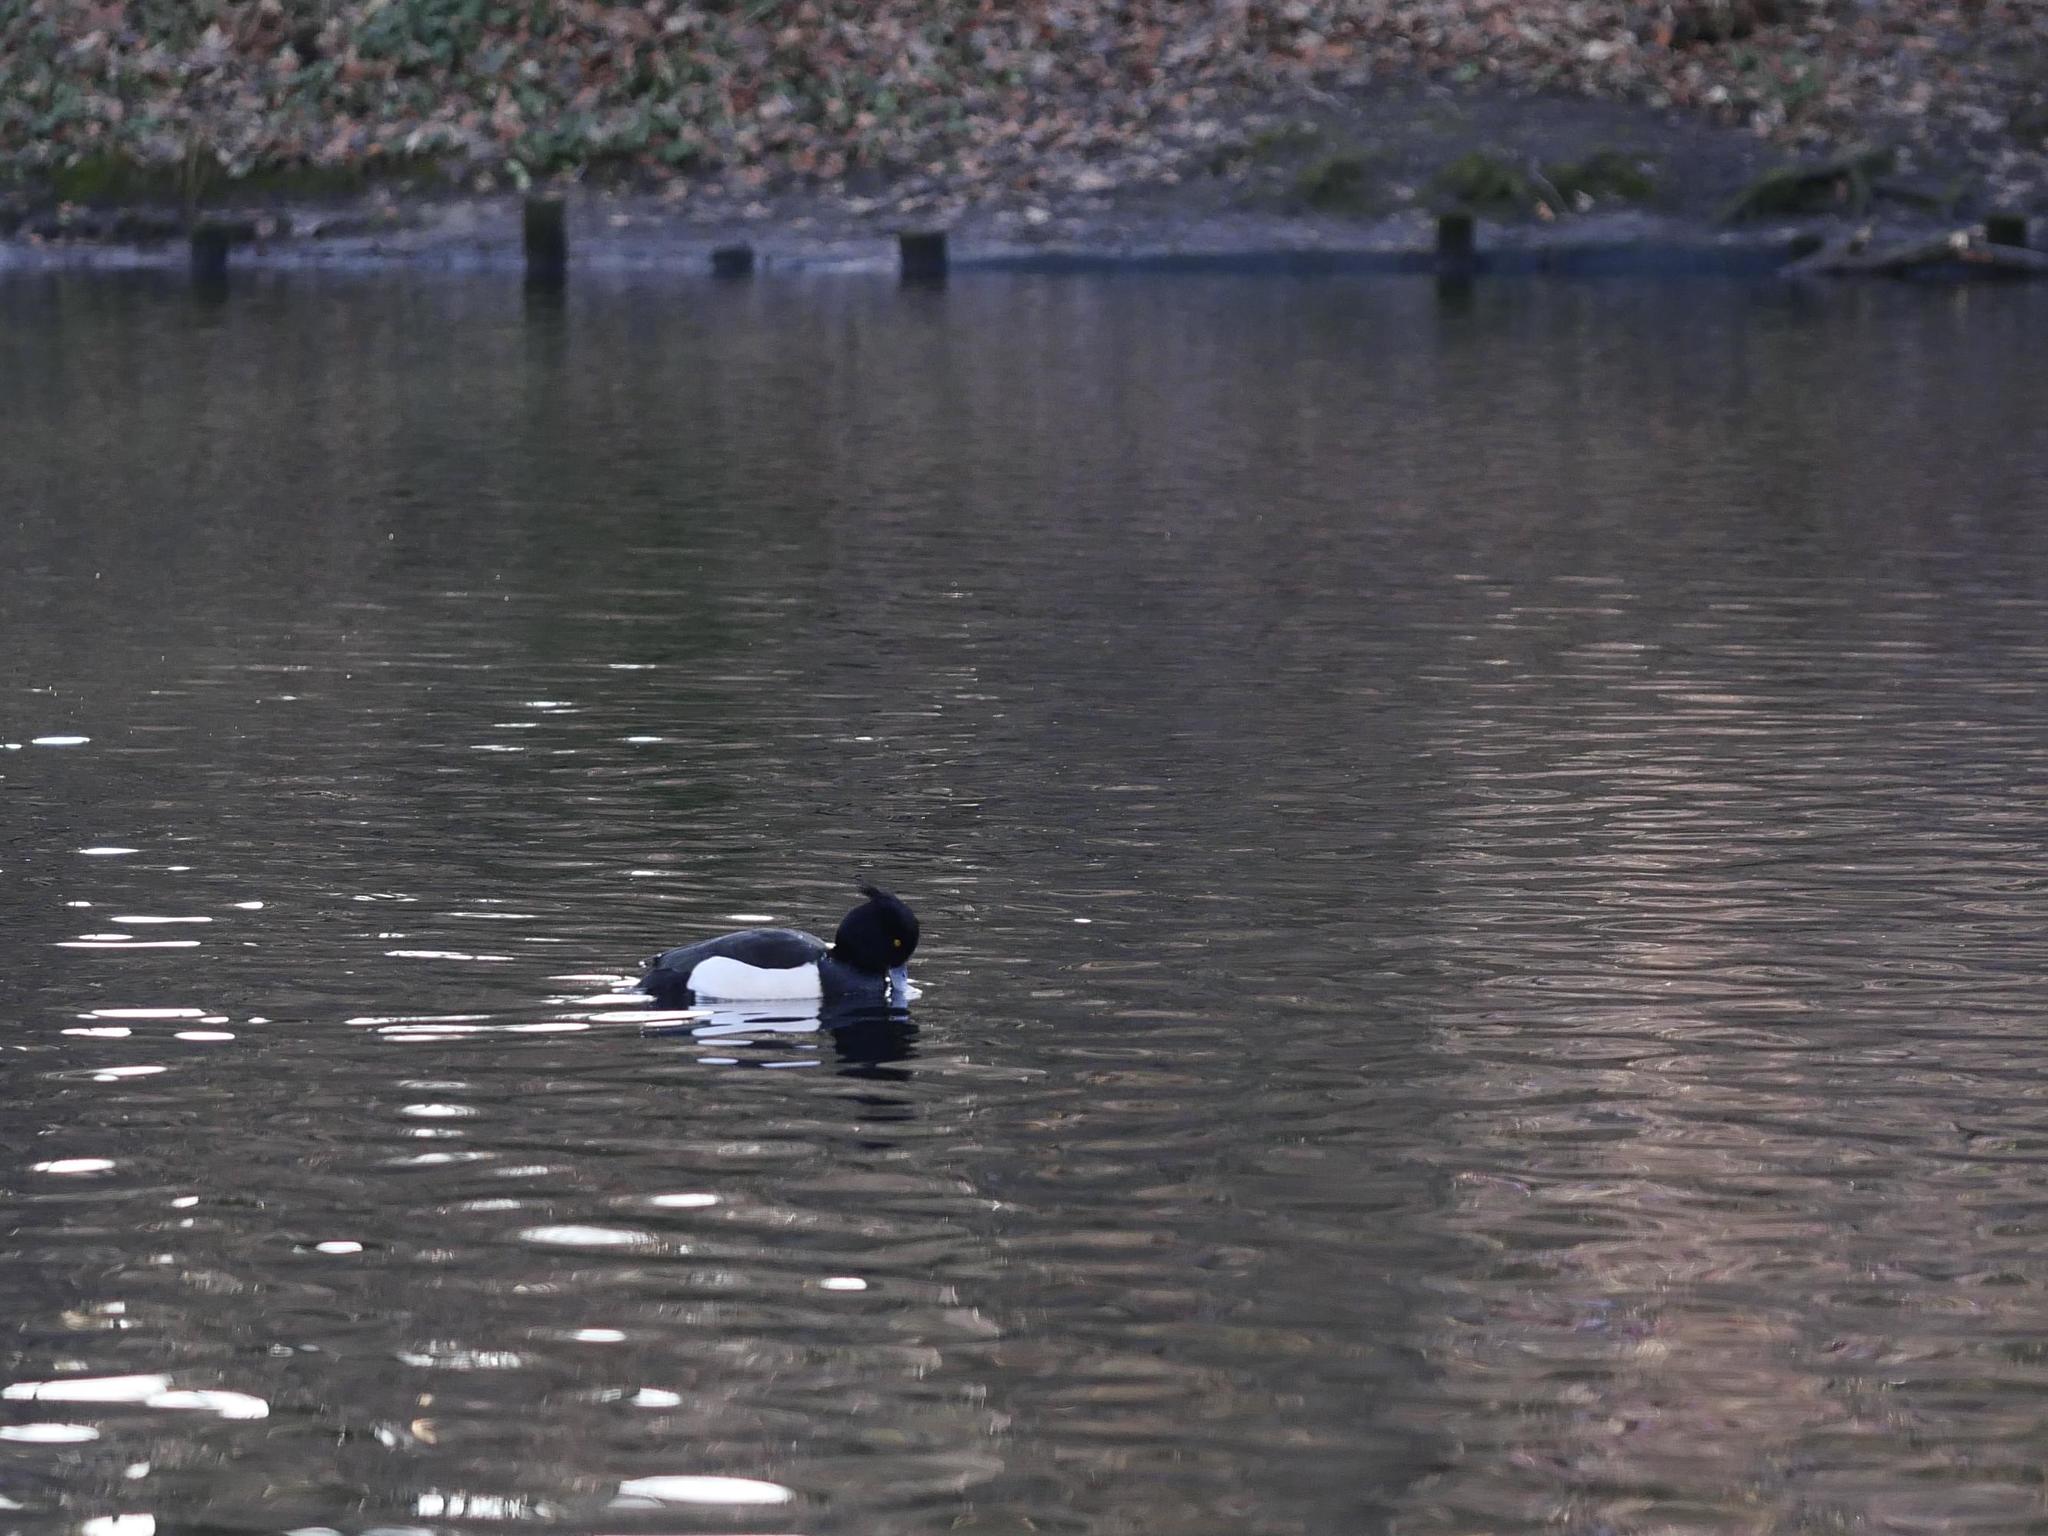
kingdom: Animalia
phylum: Chordata
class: Aves
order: Anseriformes
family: Anatidae
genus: Aythya
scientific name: Aythya fuligula
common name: Tufted duck
